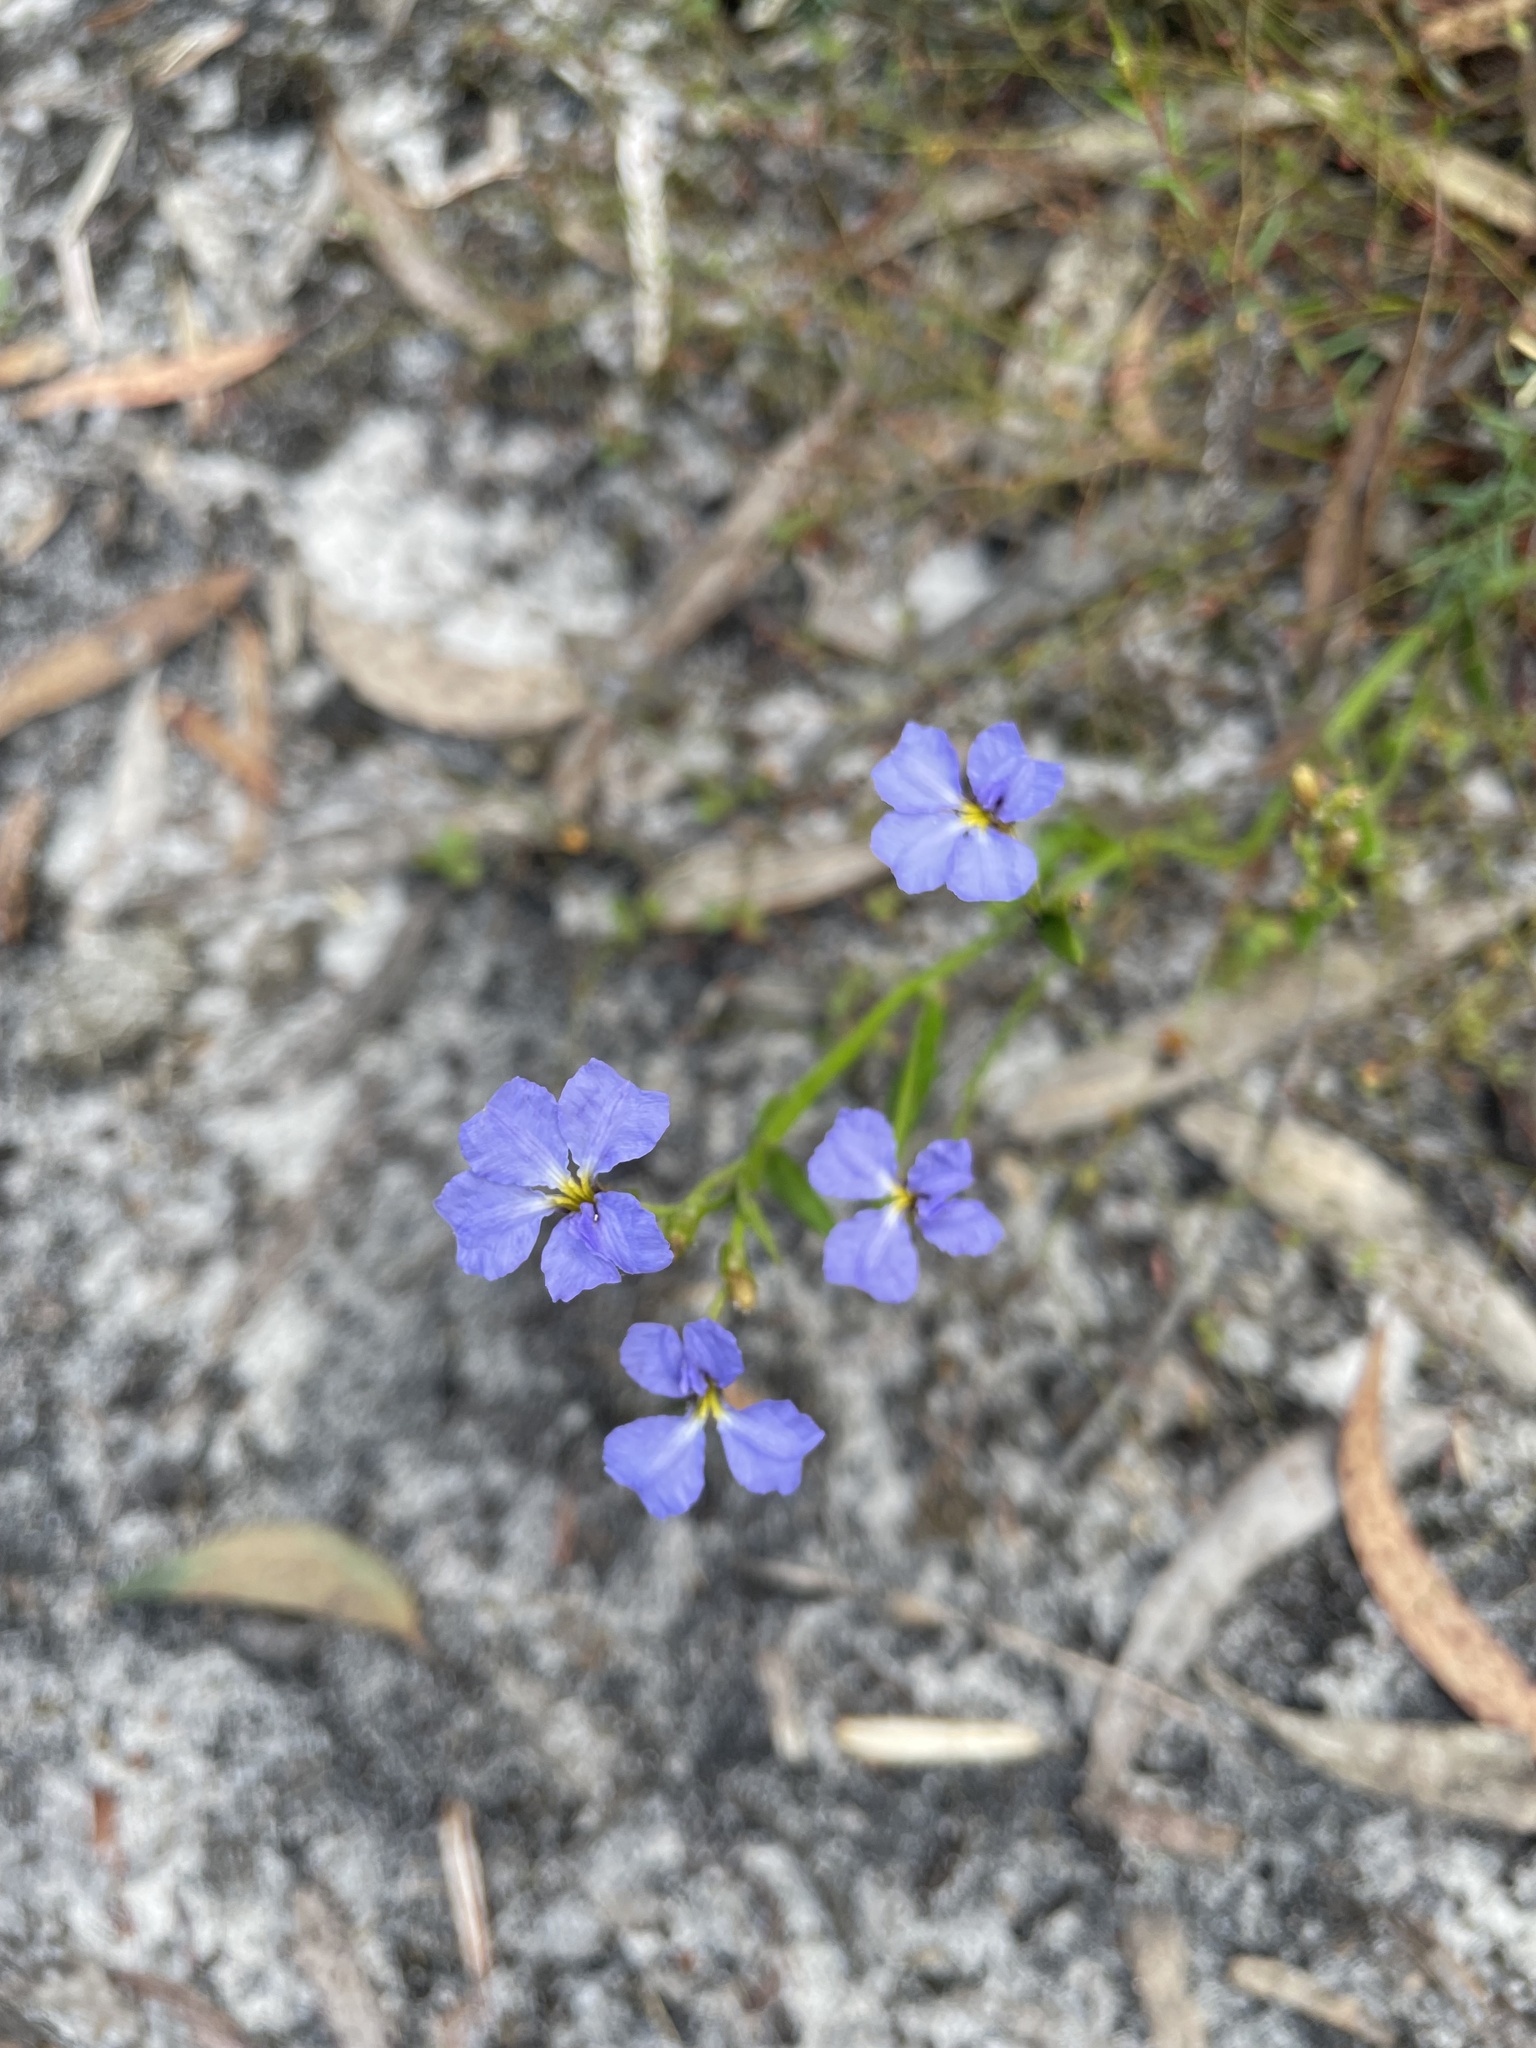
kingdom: Plantae
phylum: Tracheophyta
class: Magnoliopsida
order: Asterales
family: Goodeniaceae
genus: Dampiera
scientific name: Dampiera stricta
